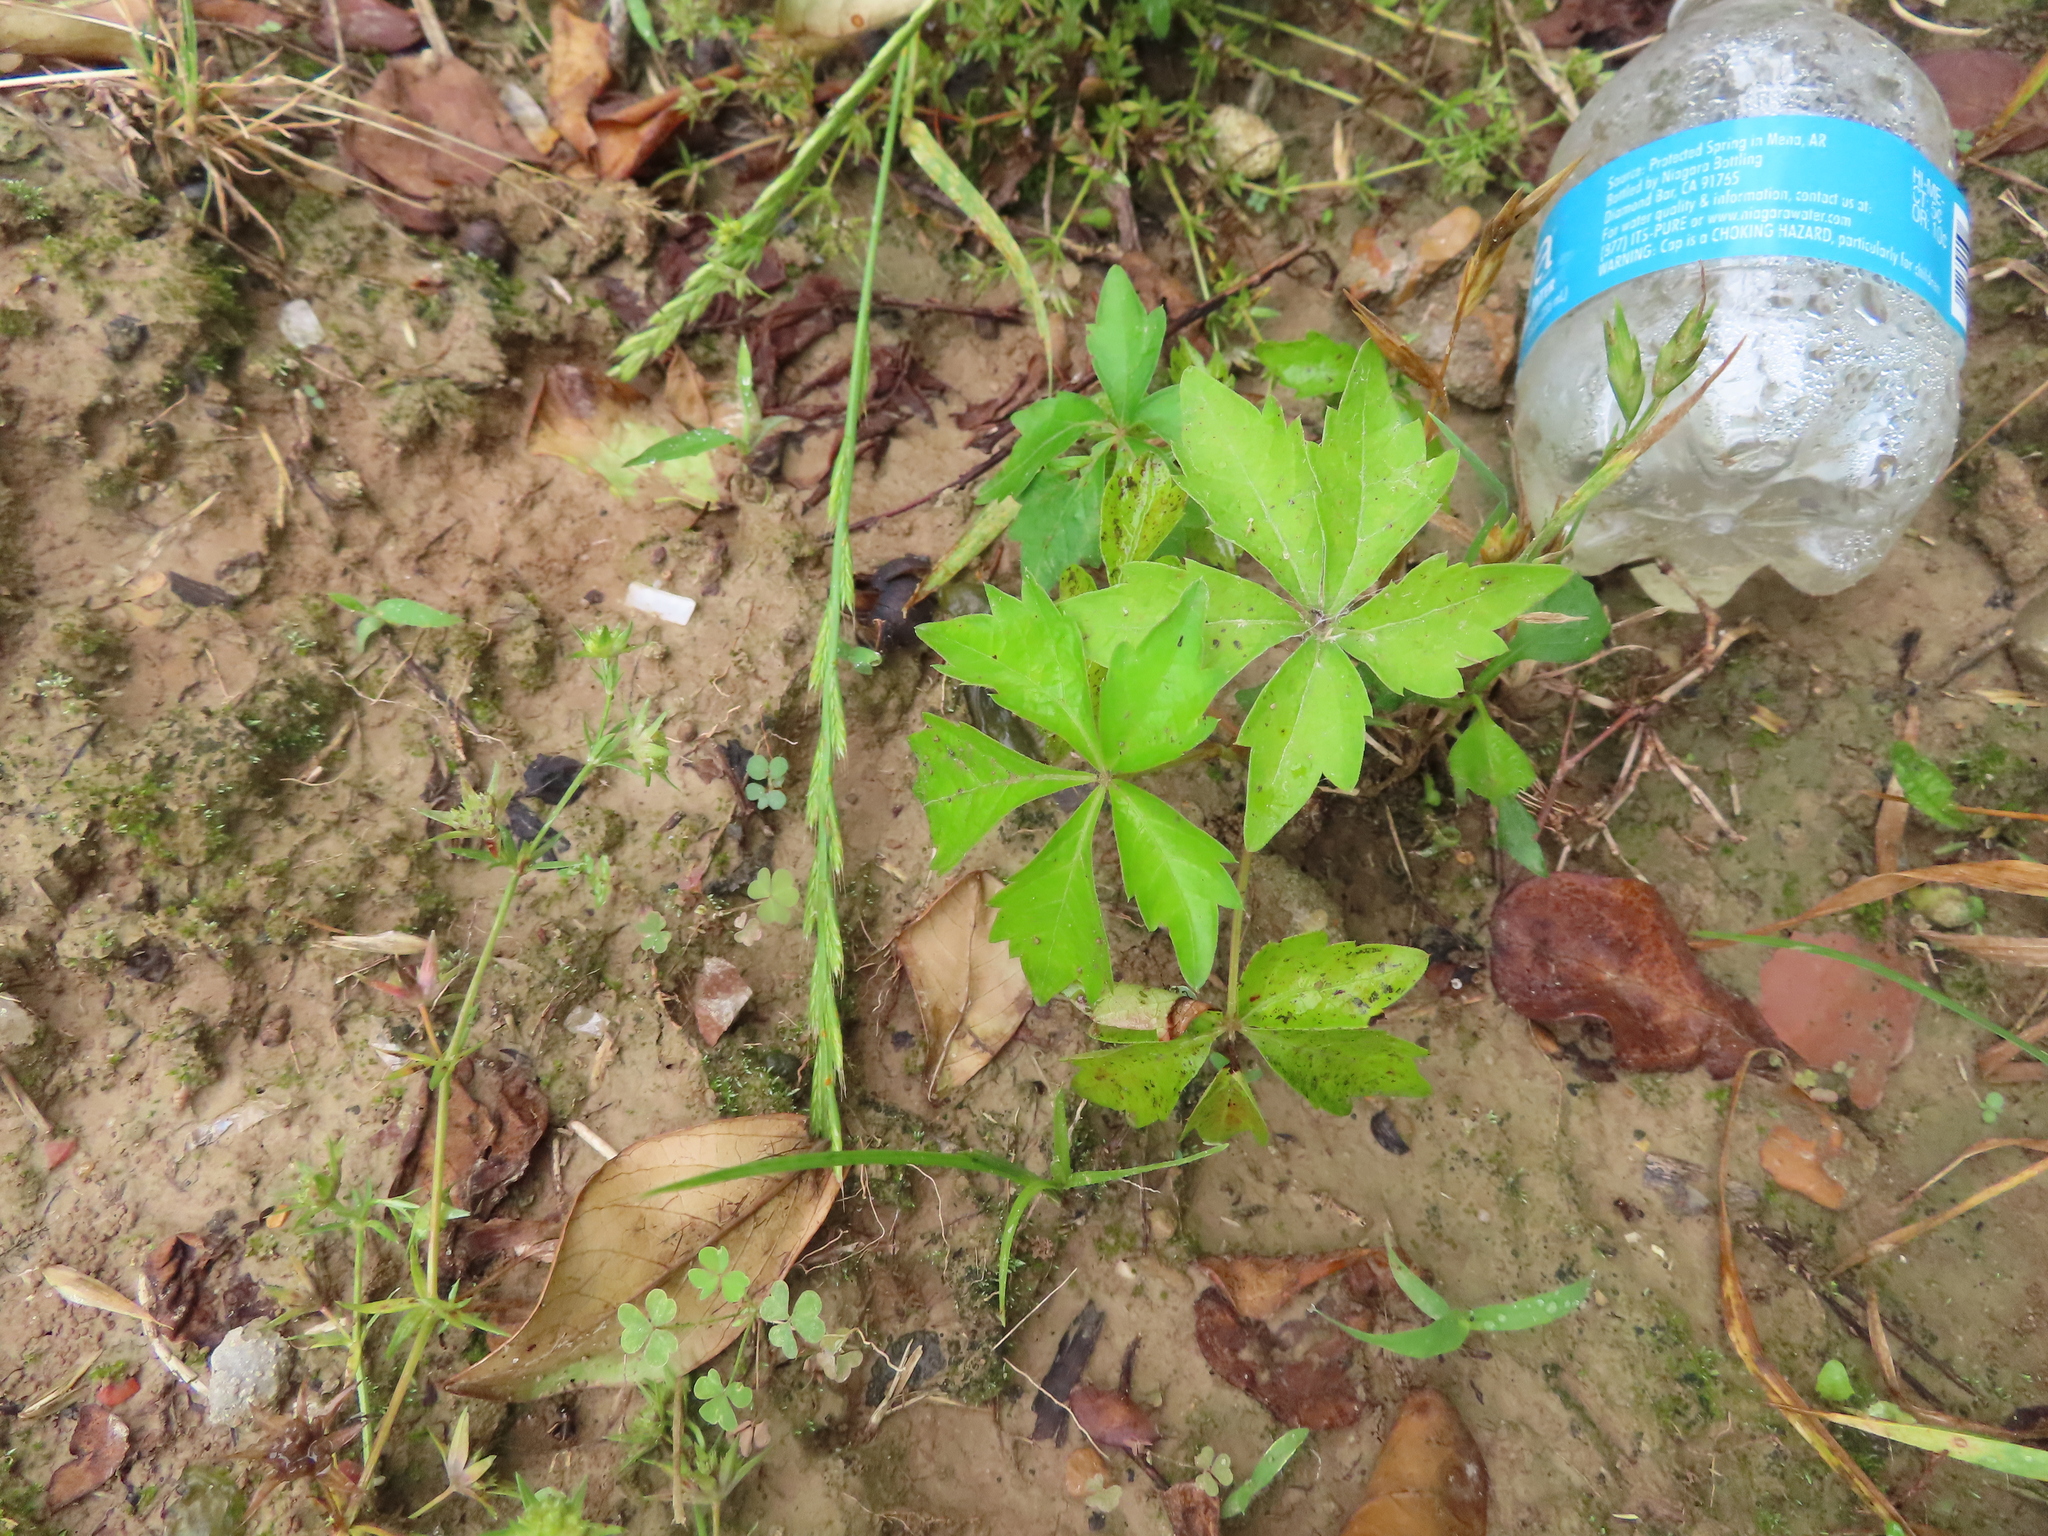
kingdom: Plantae
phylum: Tracheophyta
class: Magnoliopsida
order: Vitales
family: Vitaceae
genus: Parthenocissus
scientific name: Parthenocissus quinquefolia
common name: Virginia-creeper
